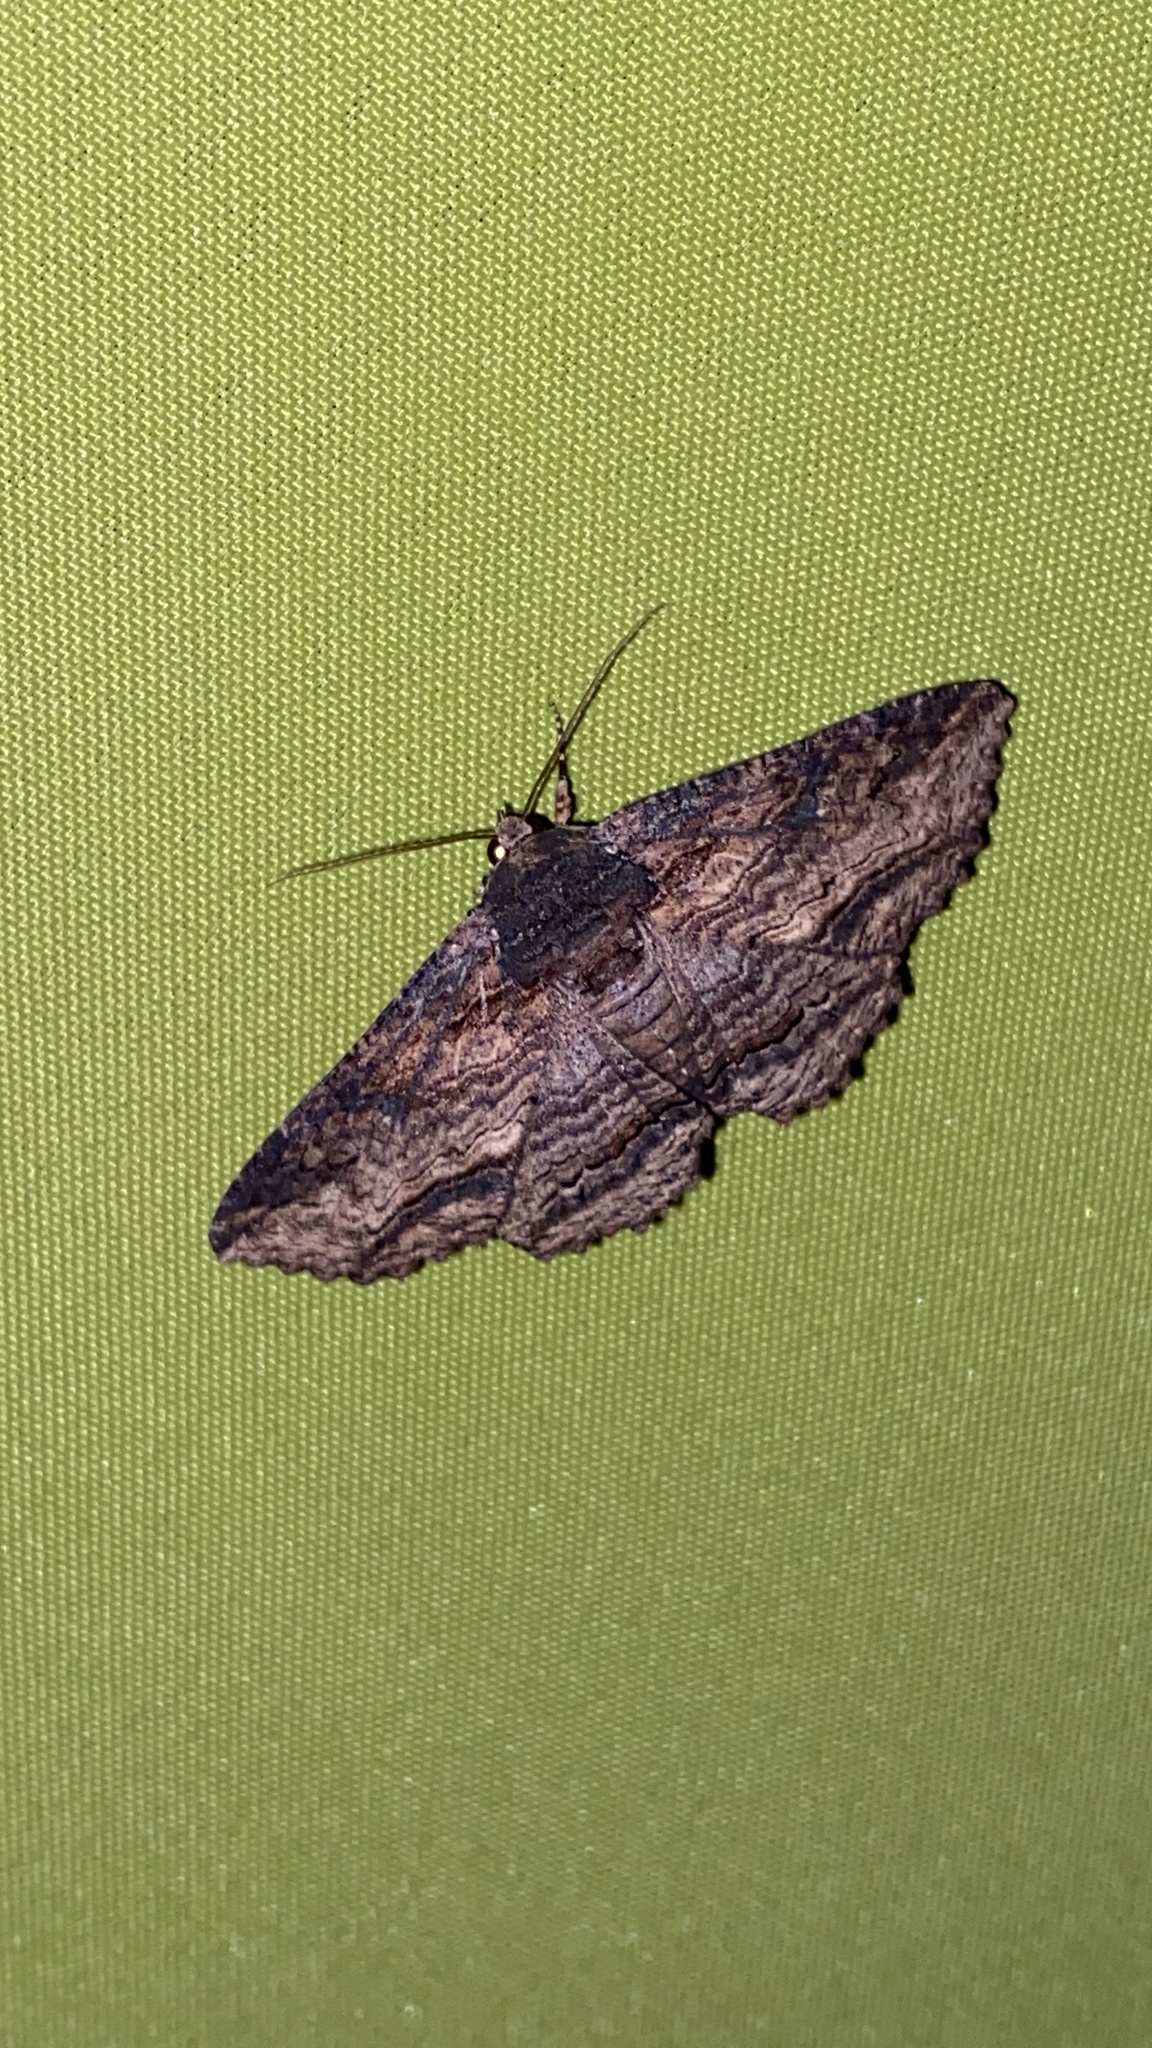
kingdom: Animalia
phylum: Arthropoda
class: Insecta
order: Lepidoptera
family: Erebidae
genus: Zale
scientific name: Zale lunata
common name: Lunate zale moth
